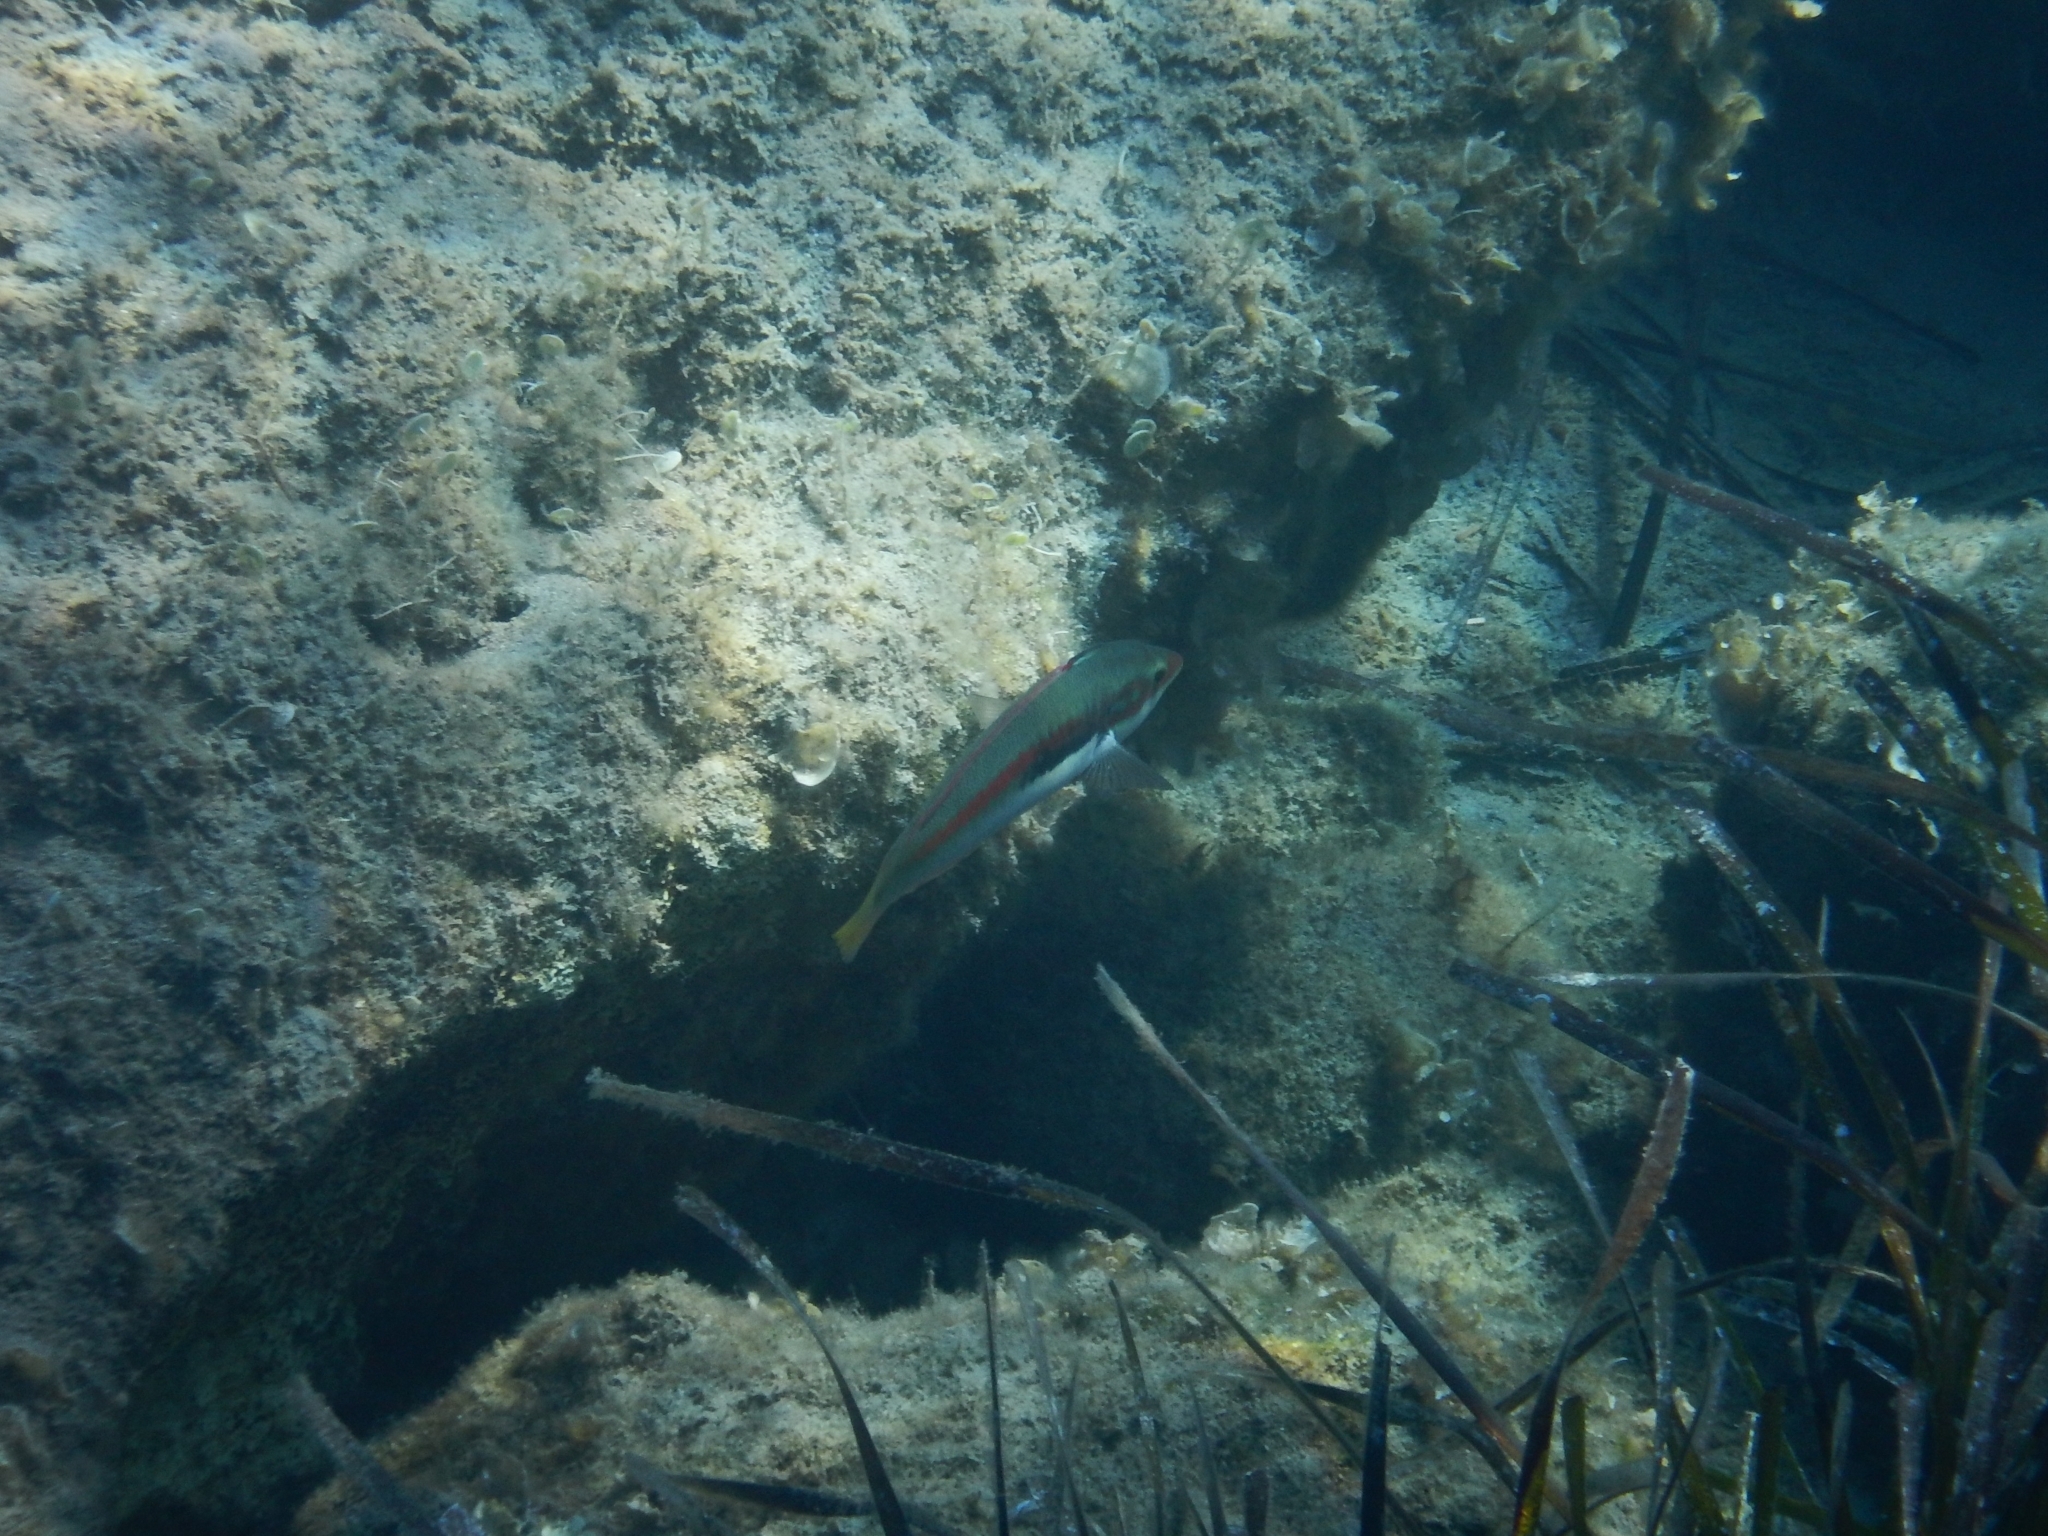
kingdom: Animalia
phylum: Chordata
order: Perciformes
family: Labridae
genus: Coris
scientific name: Coris julis
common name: Rainbow wrasse
